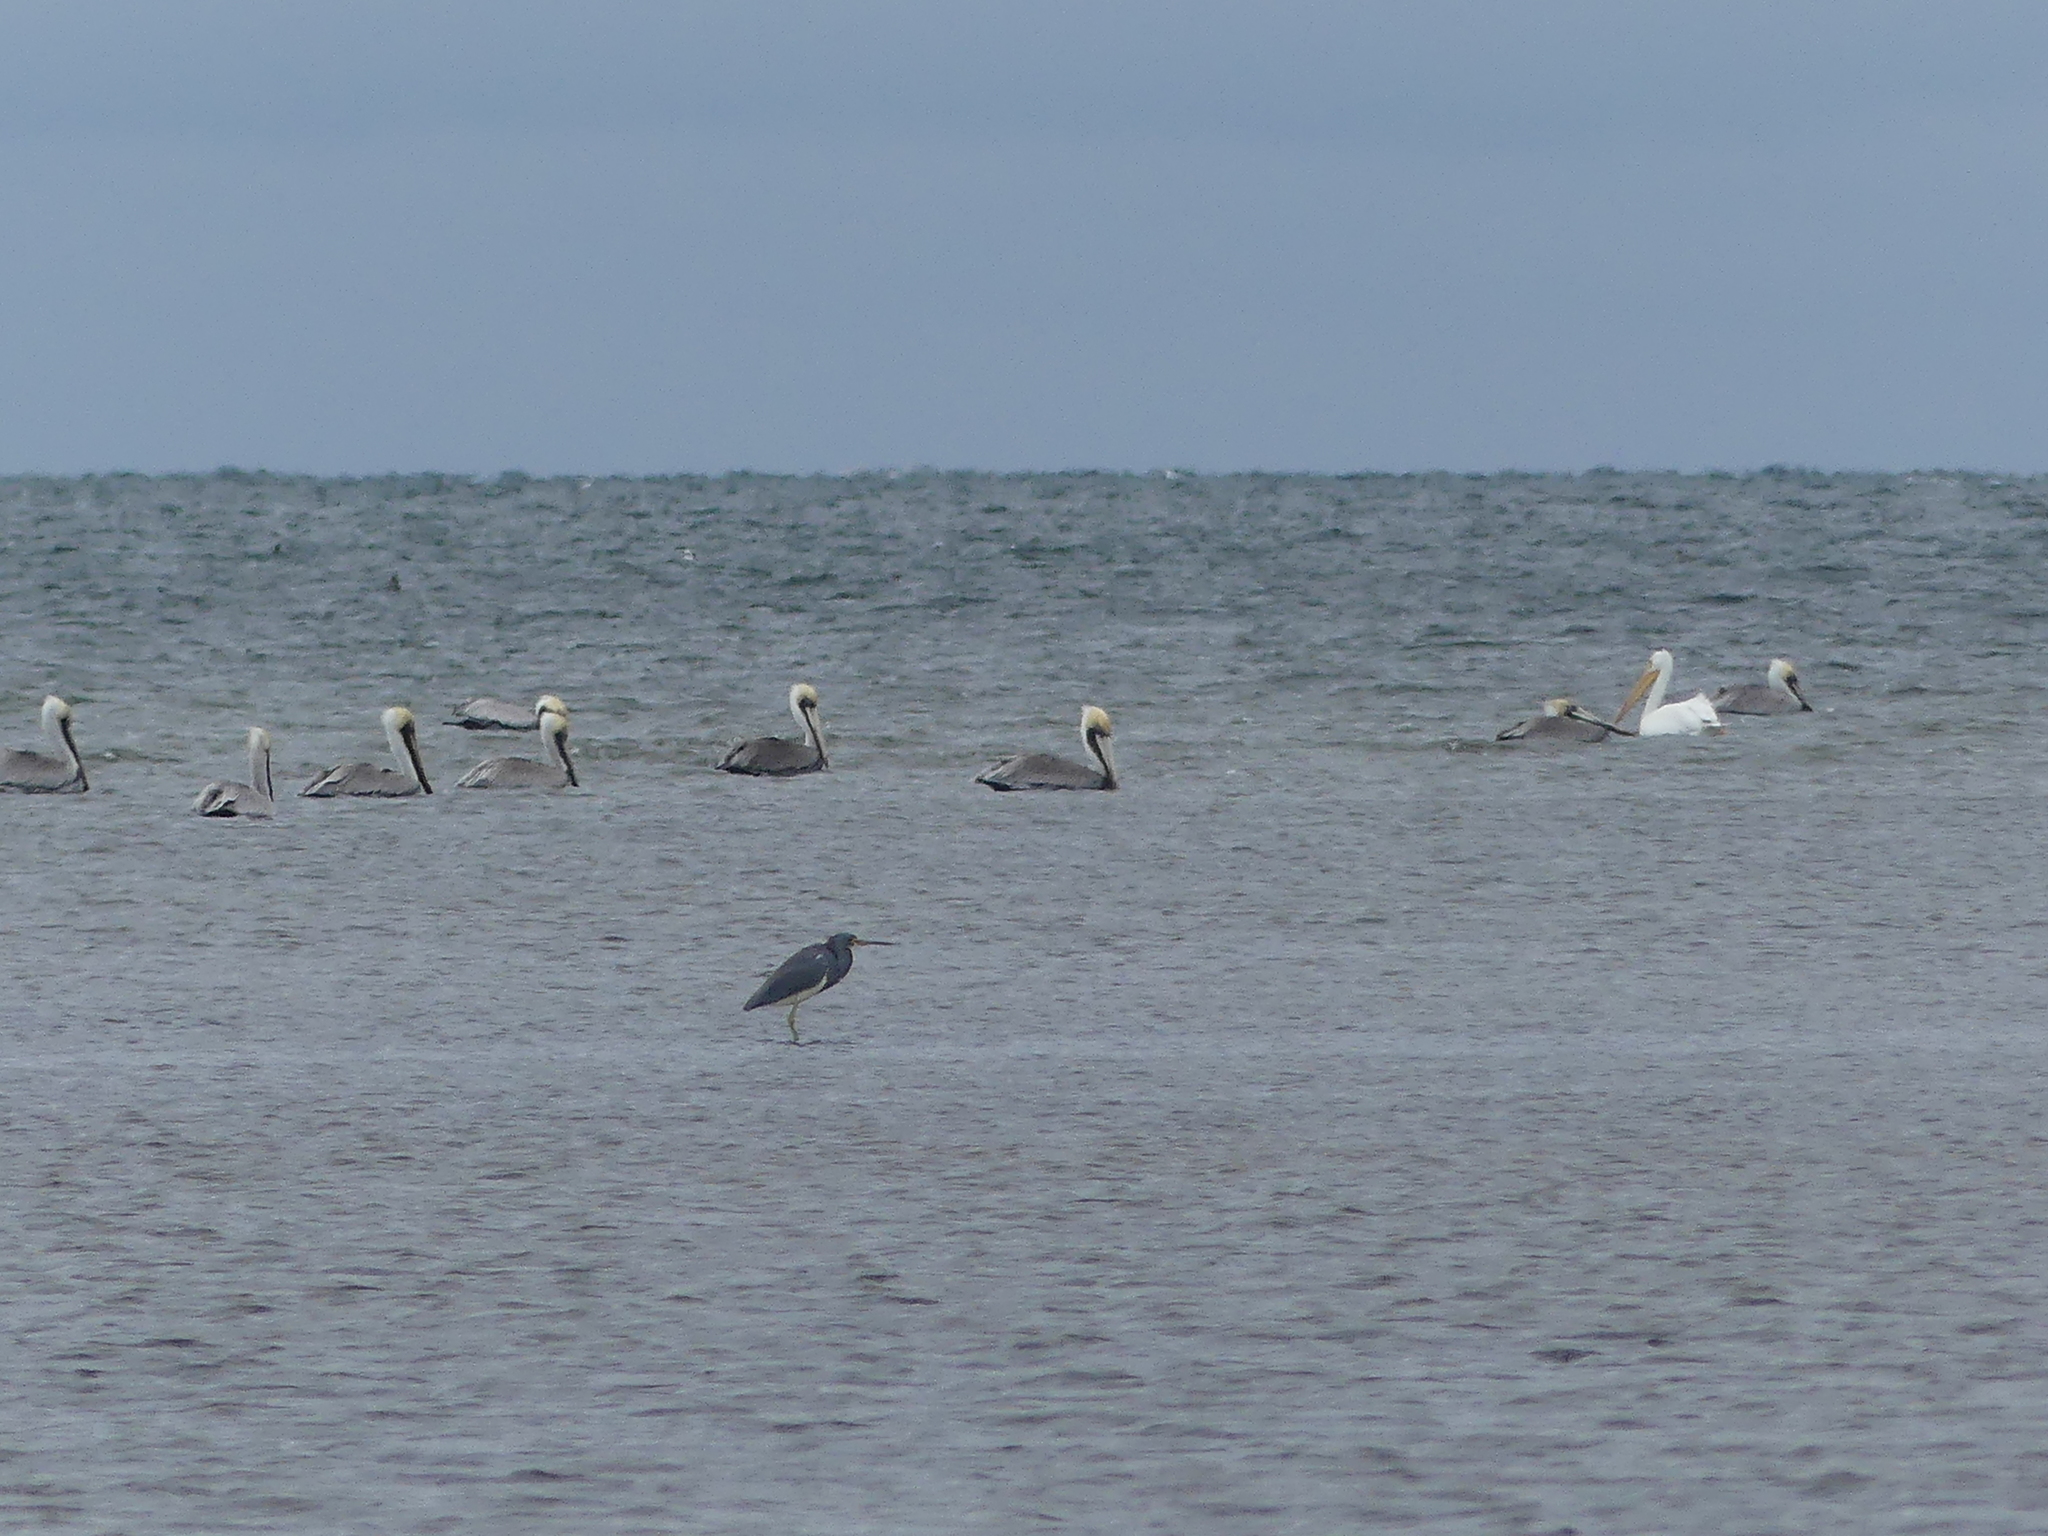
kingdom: Animalia
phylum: Chordata
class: Aves
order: Pelecaniformes
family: Pelecanidae
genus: Pelecanus
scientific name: Pelecanus occidentalis
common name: Brown pelican
